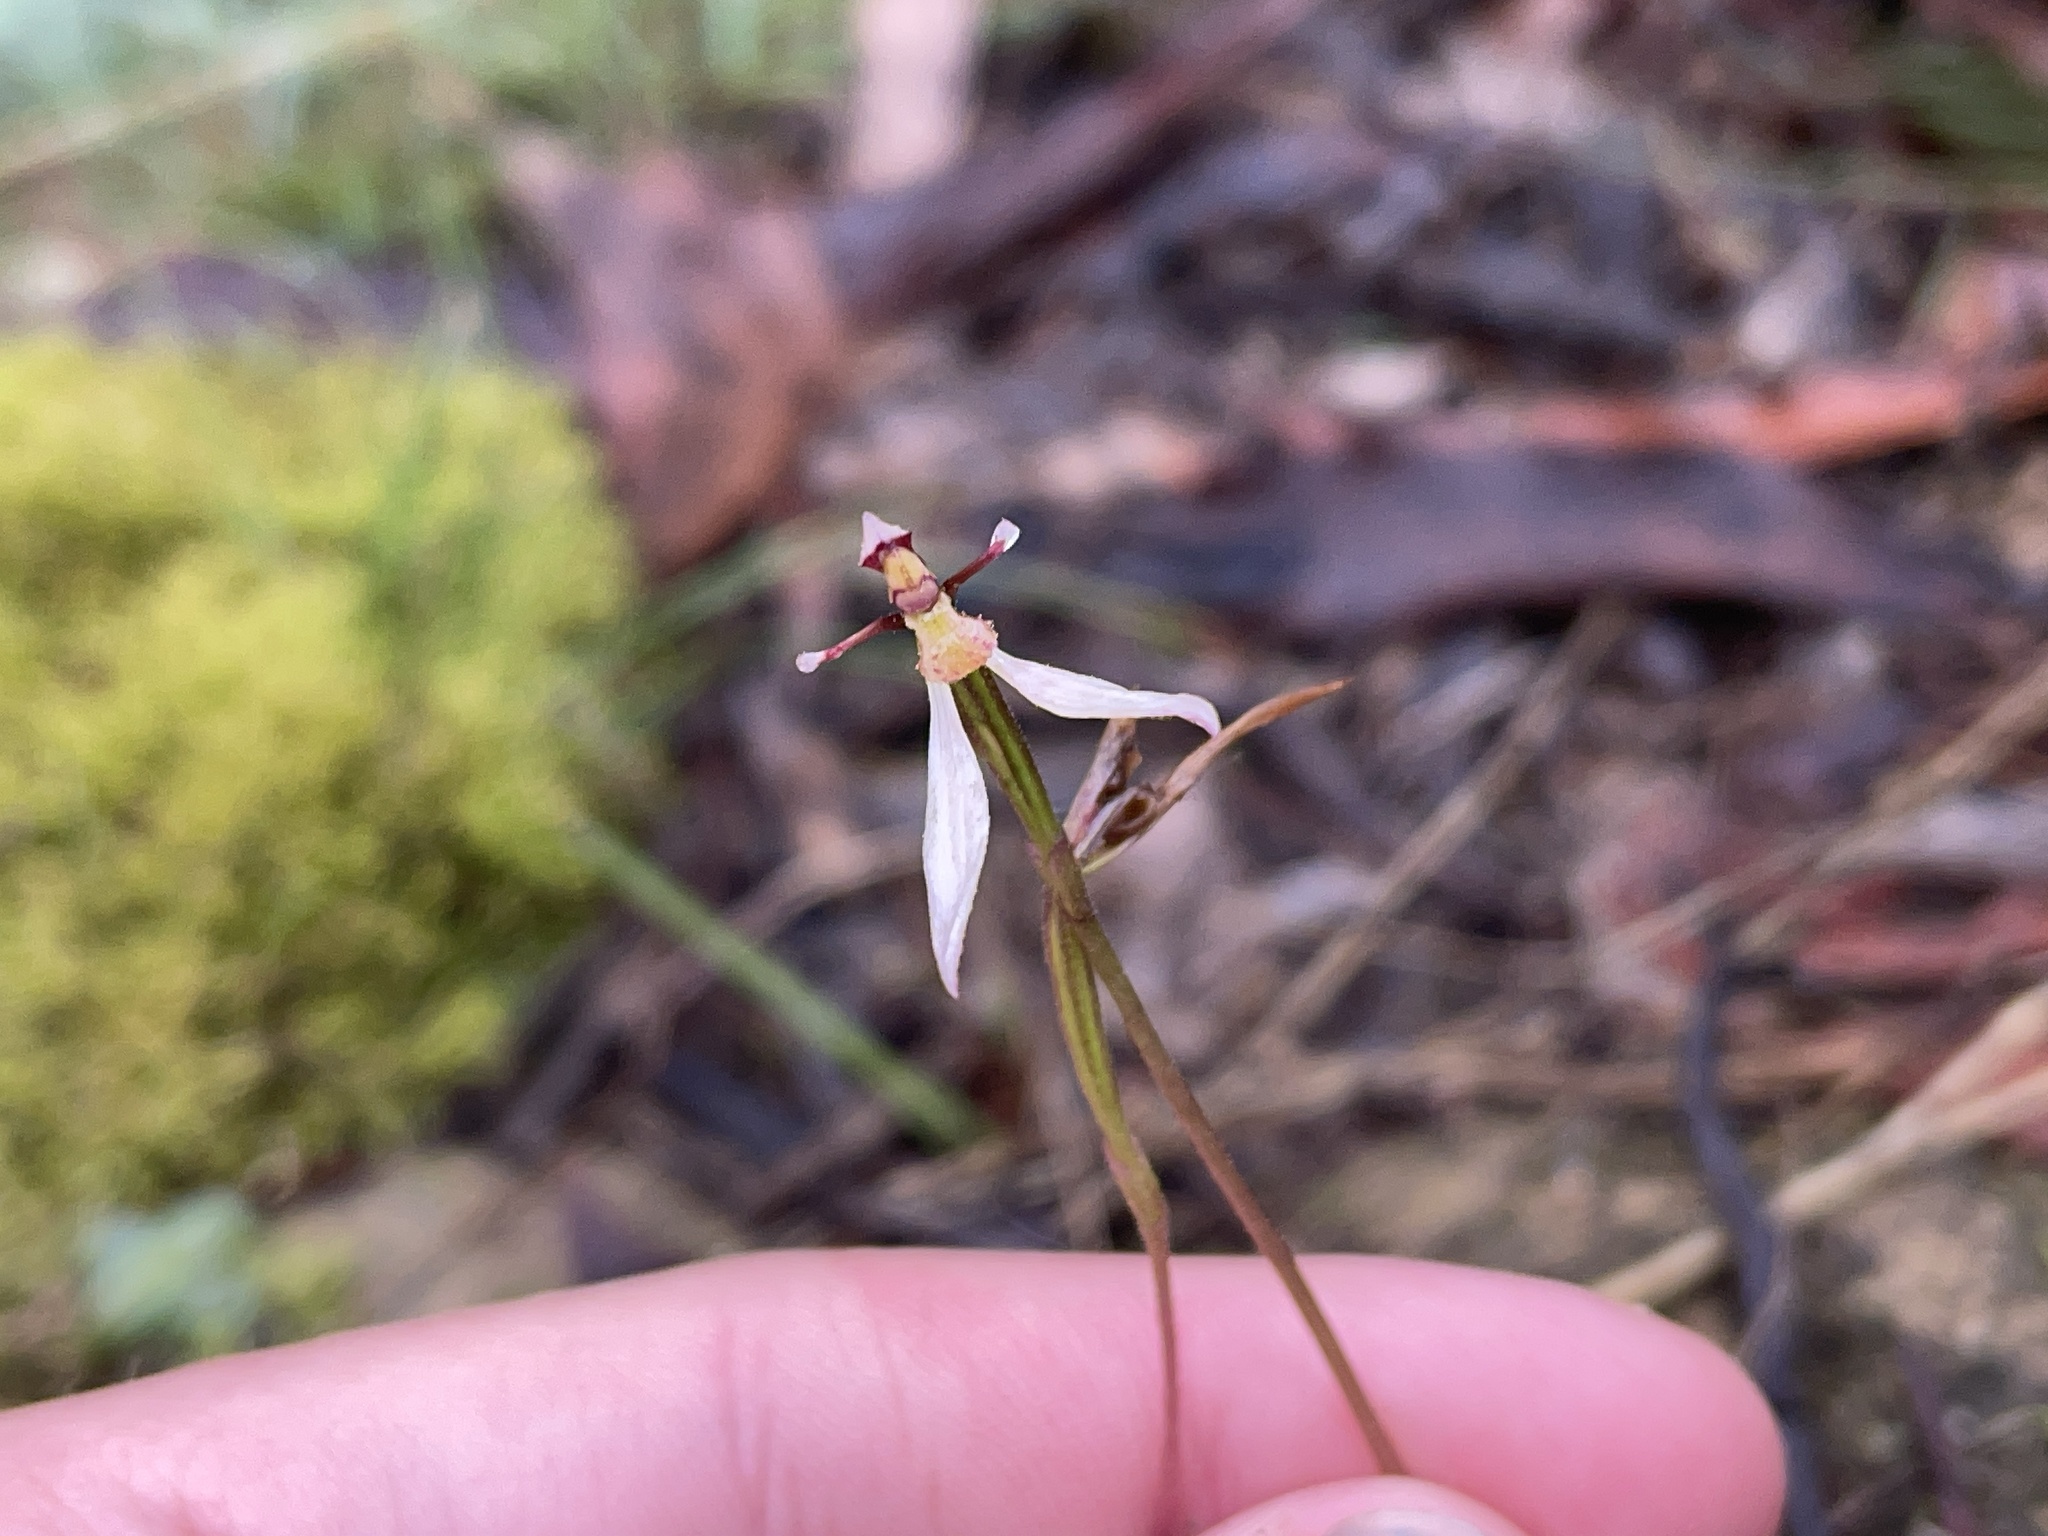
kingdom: Plantae
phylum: Tracheophyta
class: Liliopsida
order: Asparagales
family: Orchidaceae
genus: Eriochilus
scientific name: Eriochilus cucullatus
